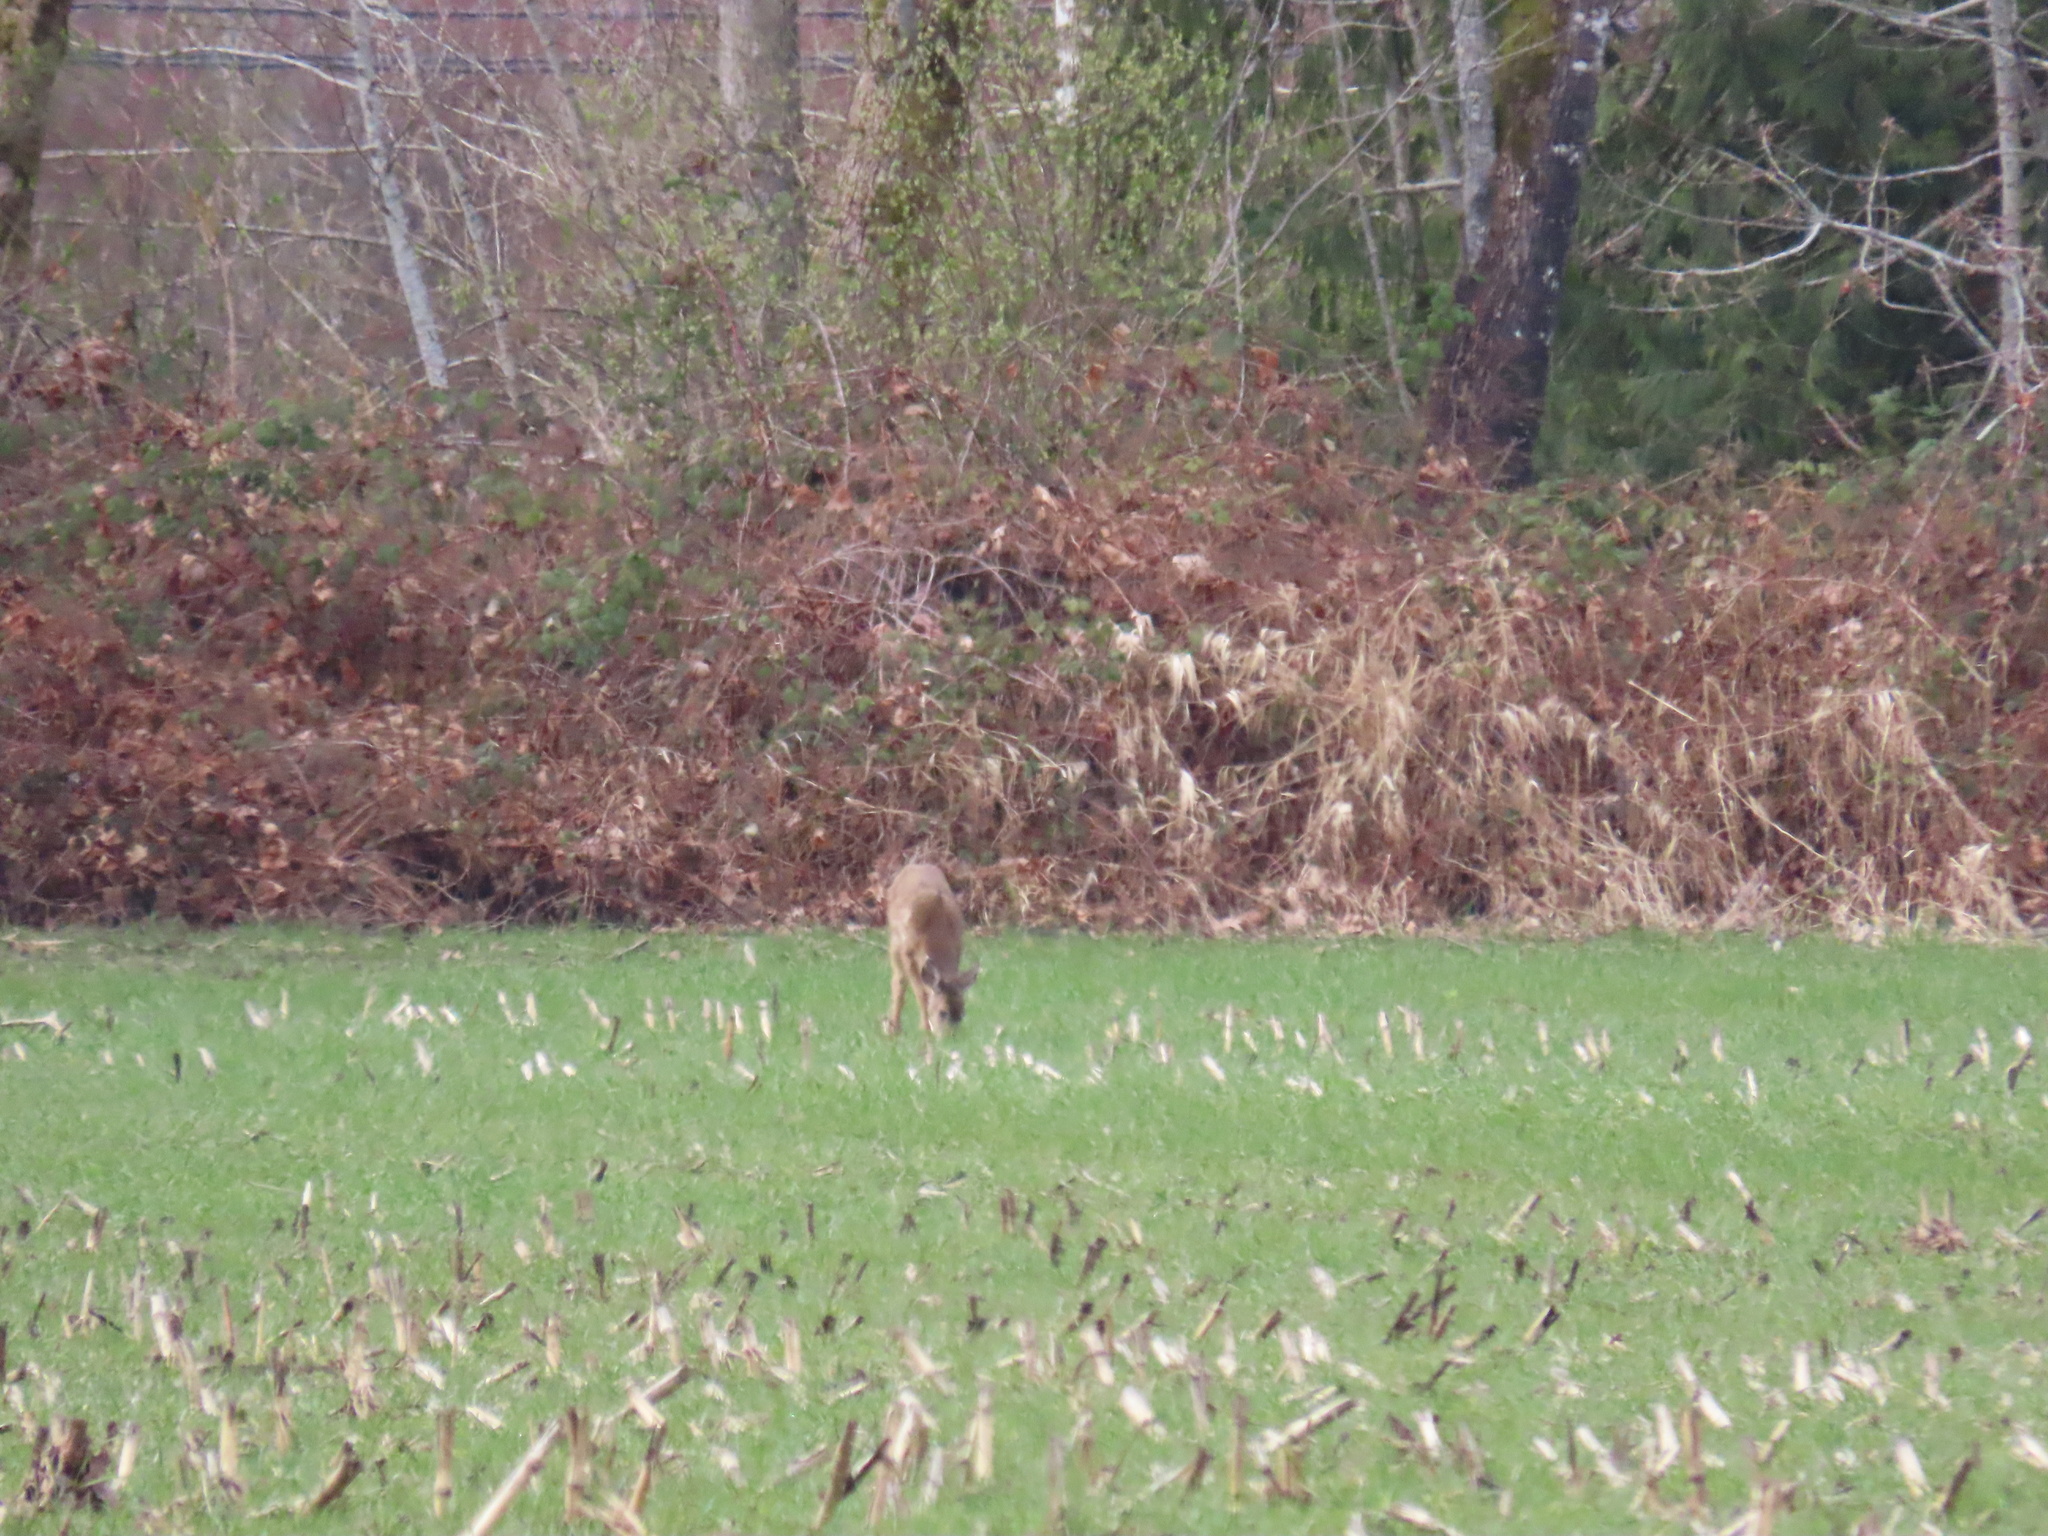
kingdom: Animalia
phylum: Chordata
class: Mammalia
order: Artiodactyla
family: Cervidae
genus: Odocoileus
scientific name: Odocoileus hemionus
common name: Mule deer
